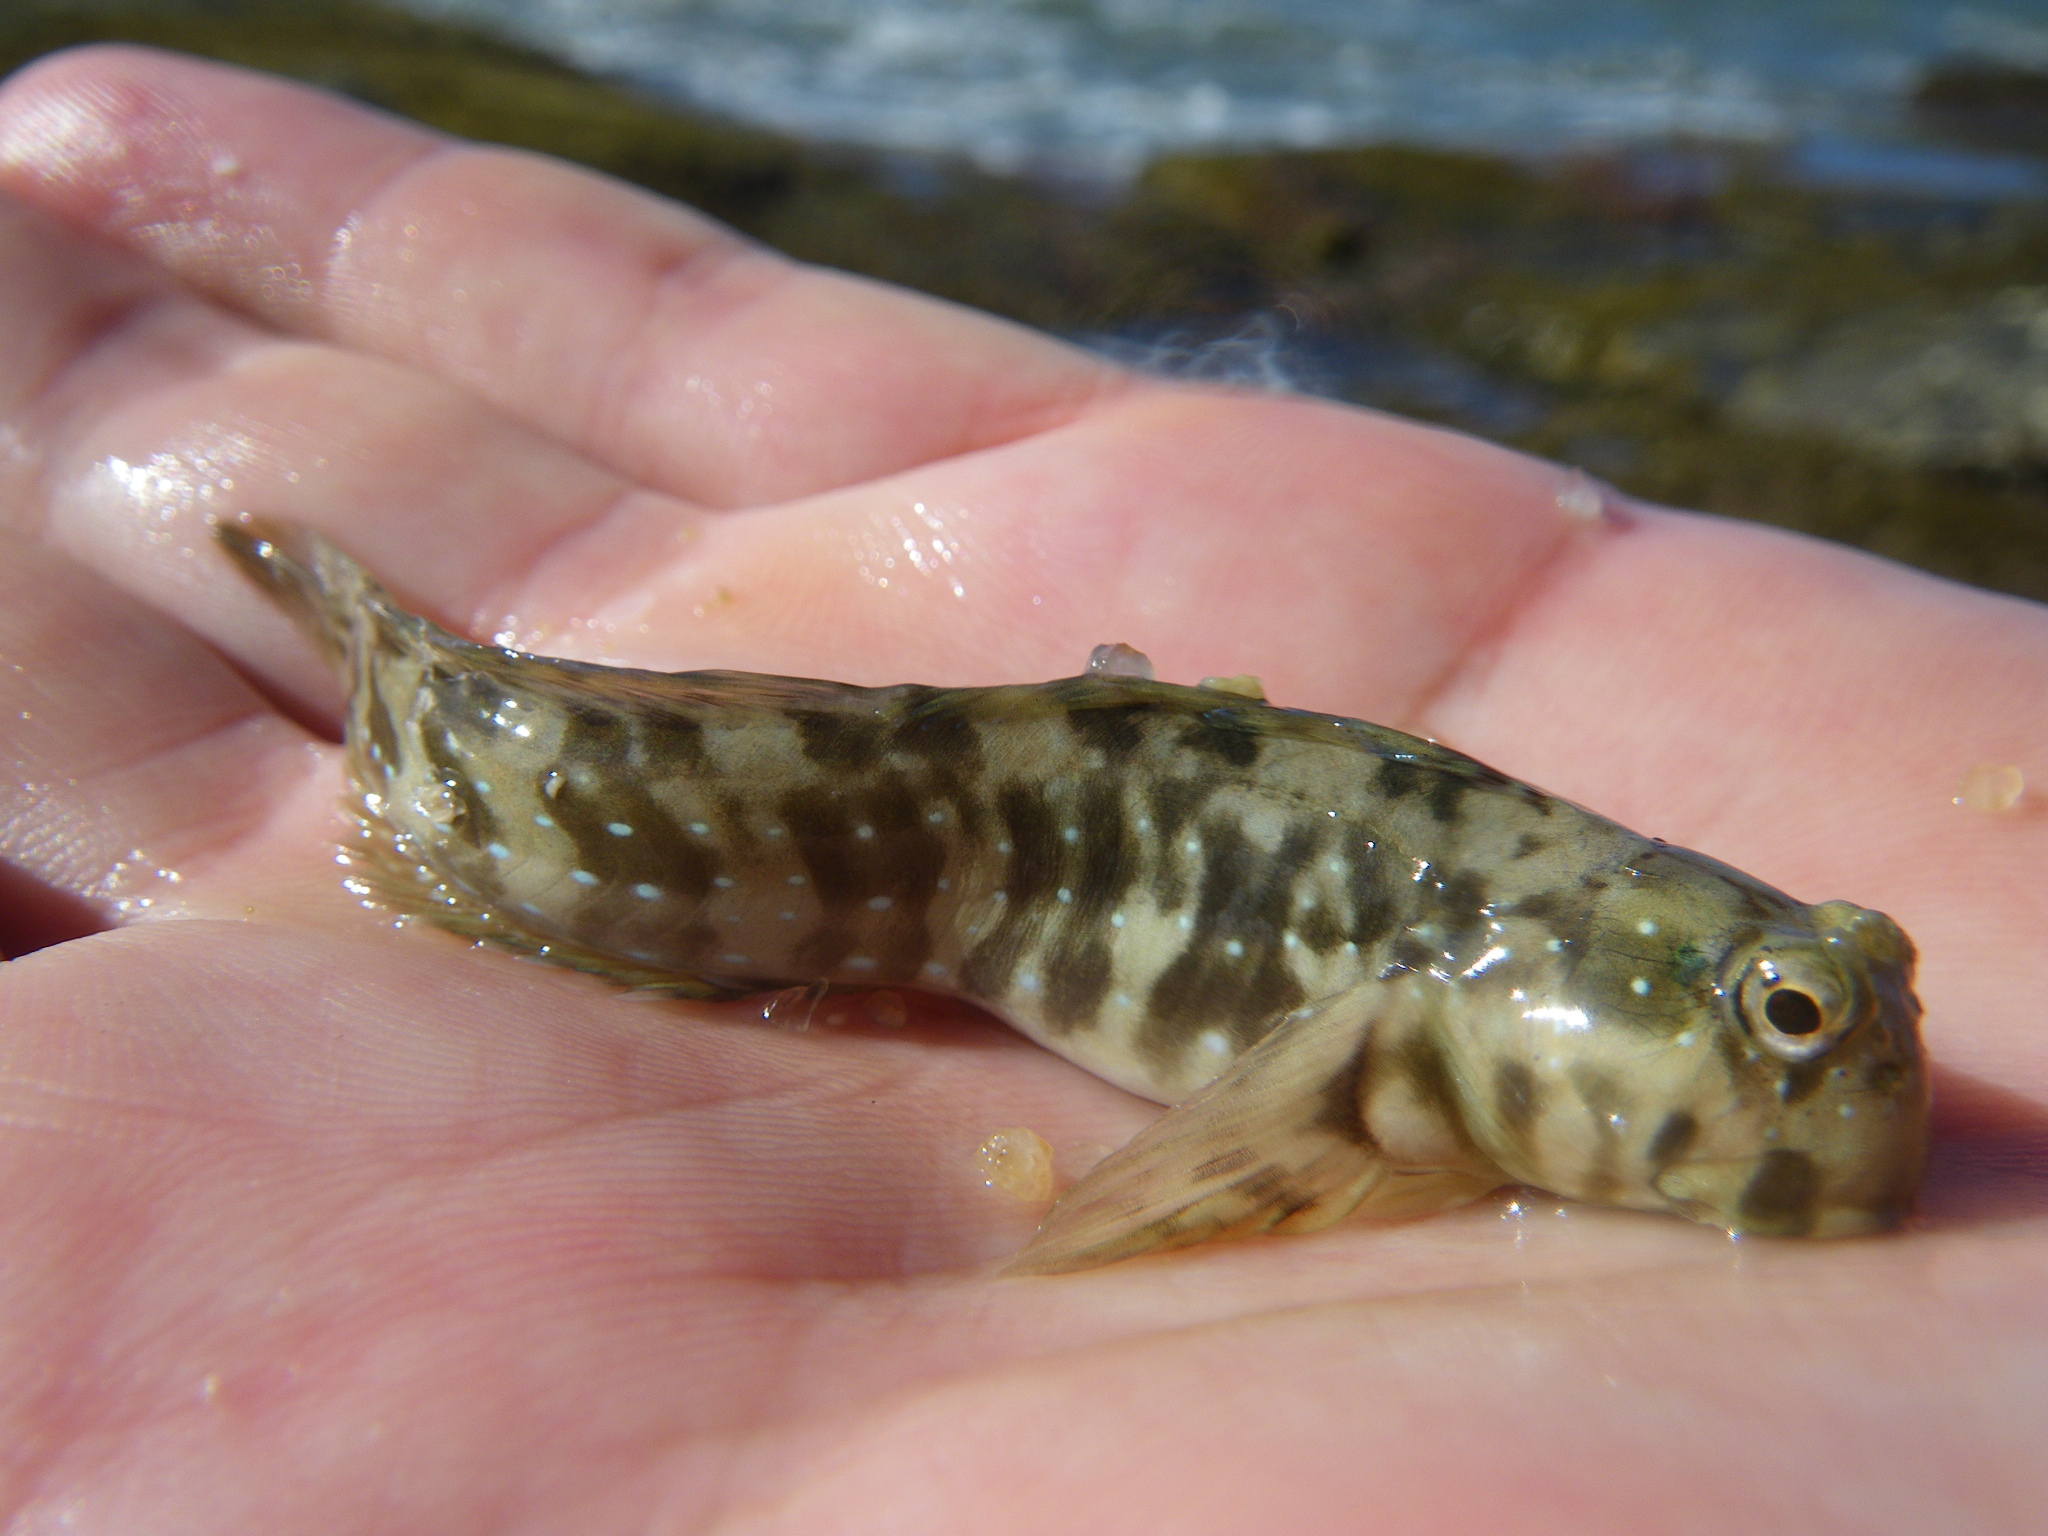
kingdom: Animalia
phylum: Chordata
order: Perciformes
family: Blenniidae
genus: Istiblennius
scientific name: Istiblennius meleagris
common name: Peacock rockskipper
